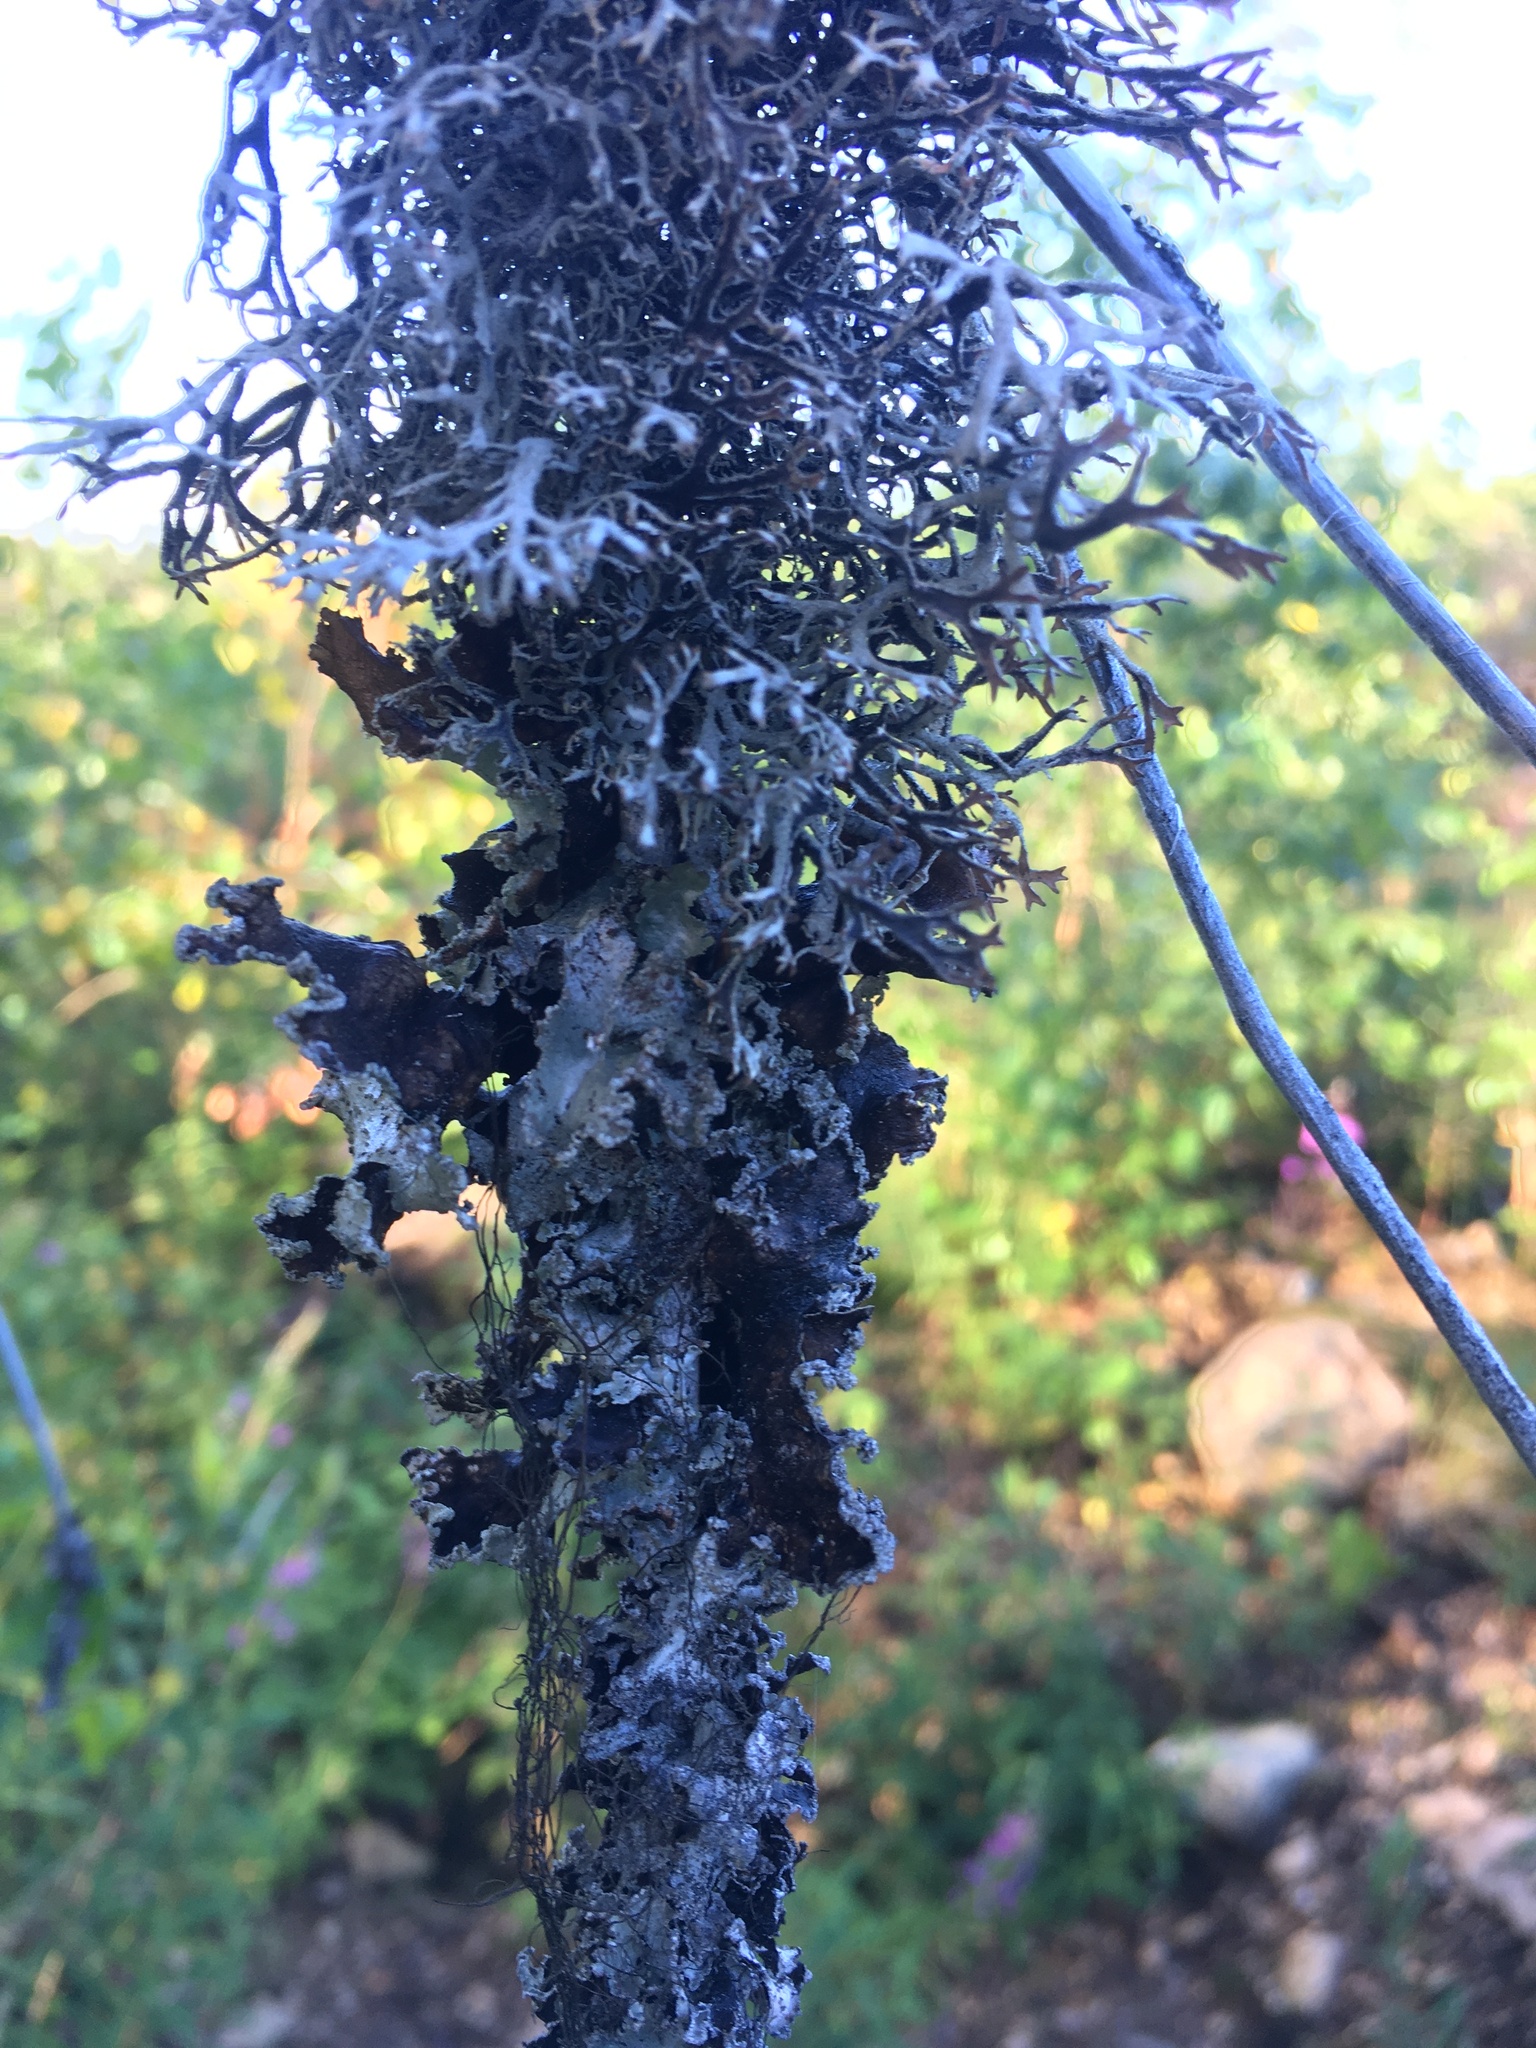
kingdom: Fungi
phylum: Ascomycota
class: Lecanoromycetes
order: Lecanorales
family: Parmeliaceae
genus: Pseudevernia
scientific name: Pseudevernia furfuracea
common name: Tree moss
